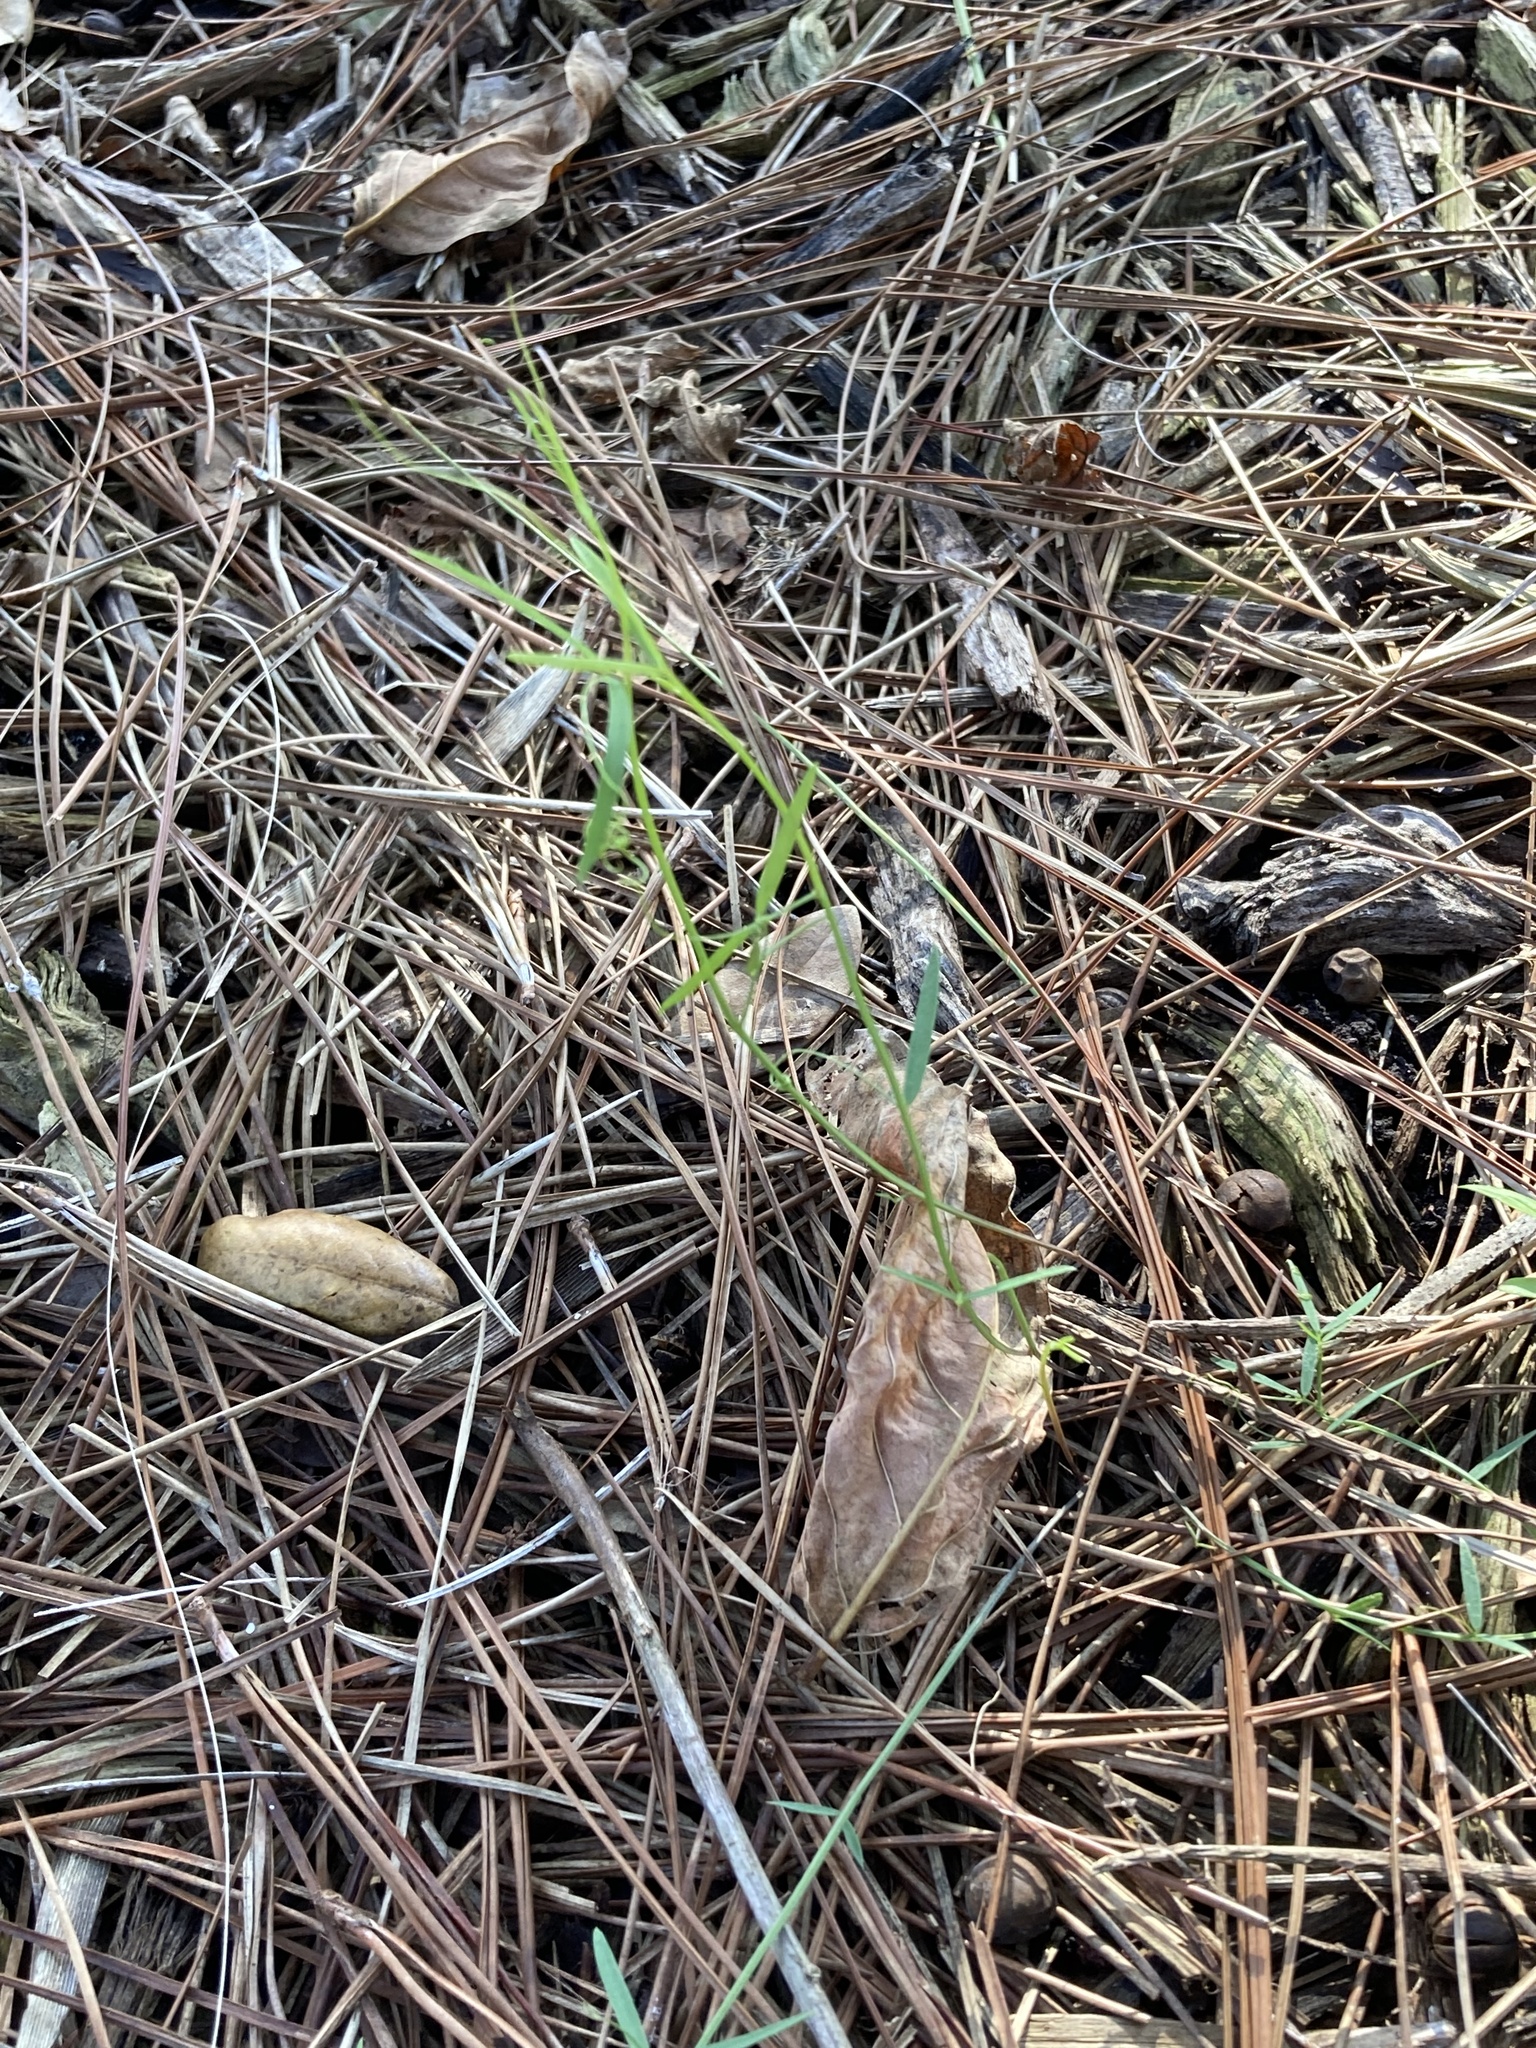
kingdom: Plantae
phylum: Tracheophyta
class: Magnoliopsida
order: Fabales
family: Fabaceae
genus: Vicia
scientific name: Vicia acutifolia
